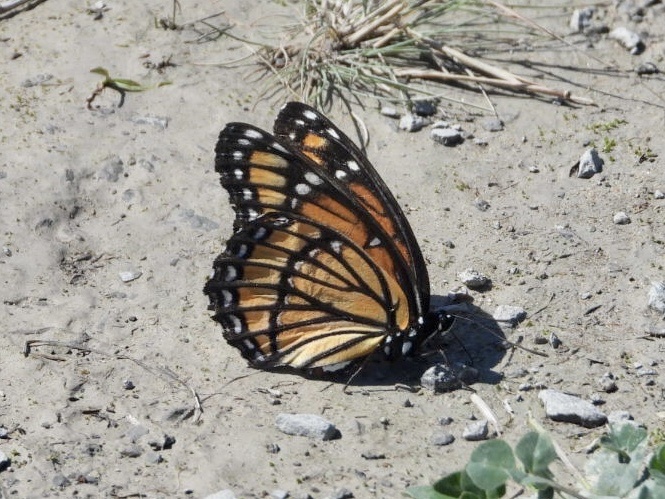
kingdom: Animalia
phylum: Arthropoda
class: Insecta
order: Lepidoptera
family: Nymphalidae
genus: Limenitis
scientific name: Limenitis archippus
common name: Viceroy
